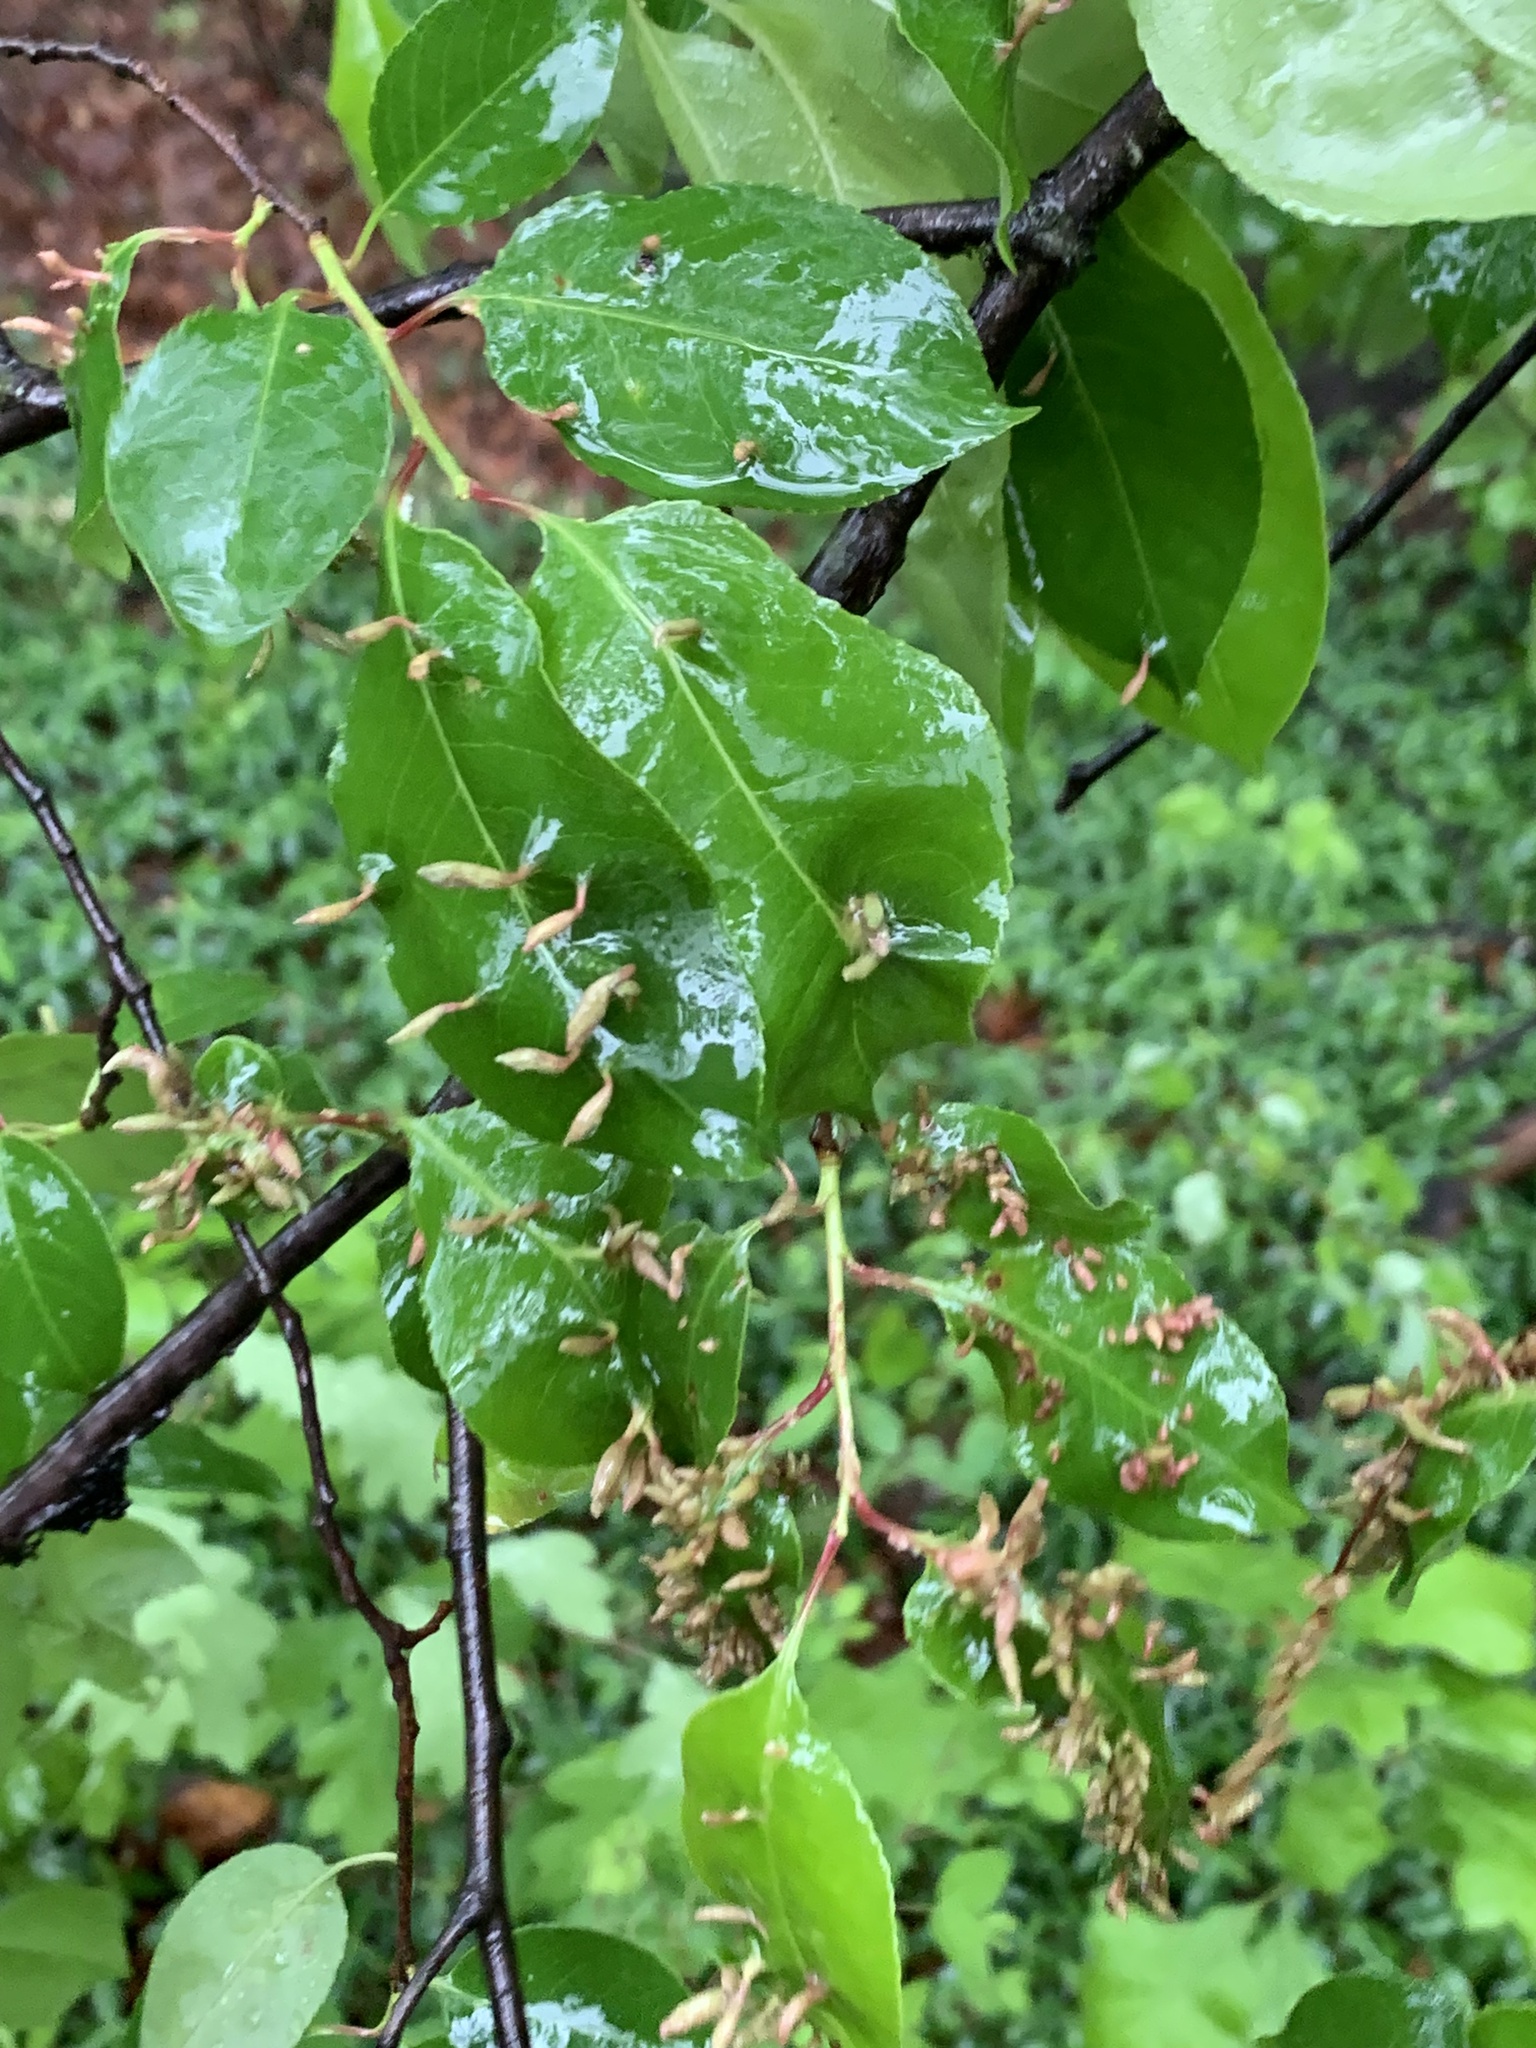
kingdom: Animalia
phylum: Arthropoda
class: Arachnida
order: Trombidiformes
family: Eriophyidae
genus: Eriophyes
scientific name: Eriophyes
